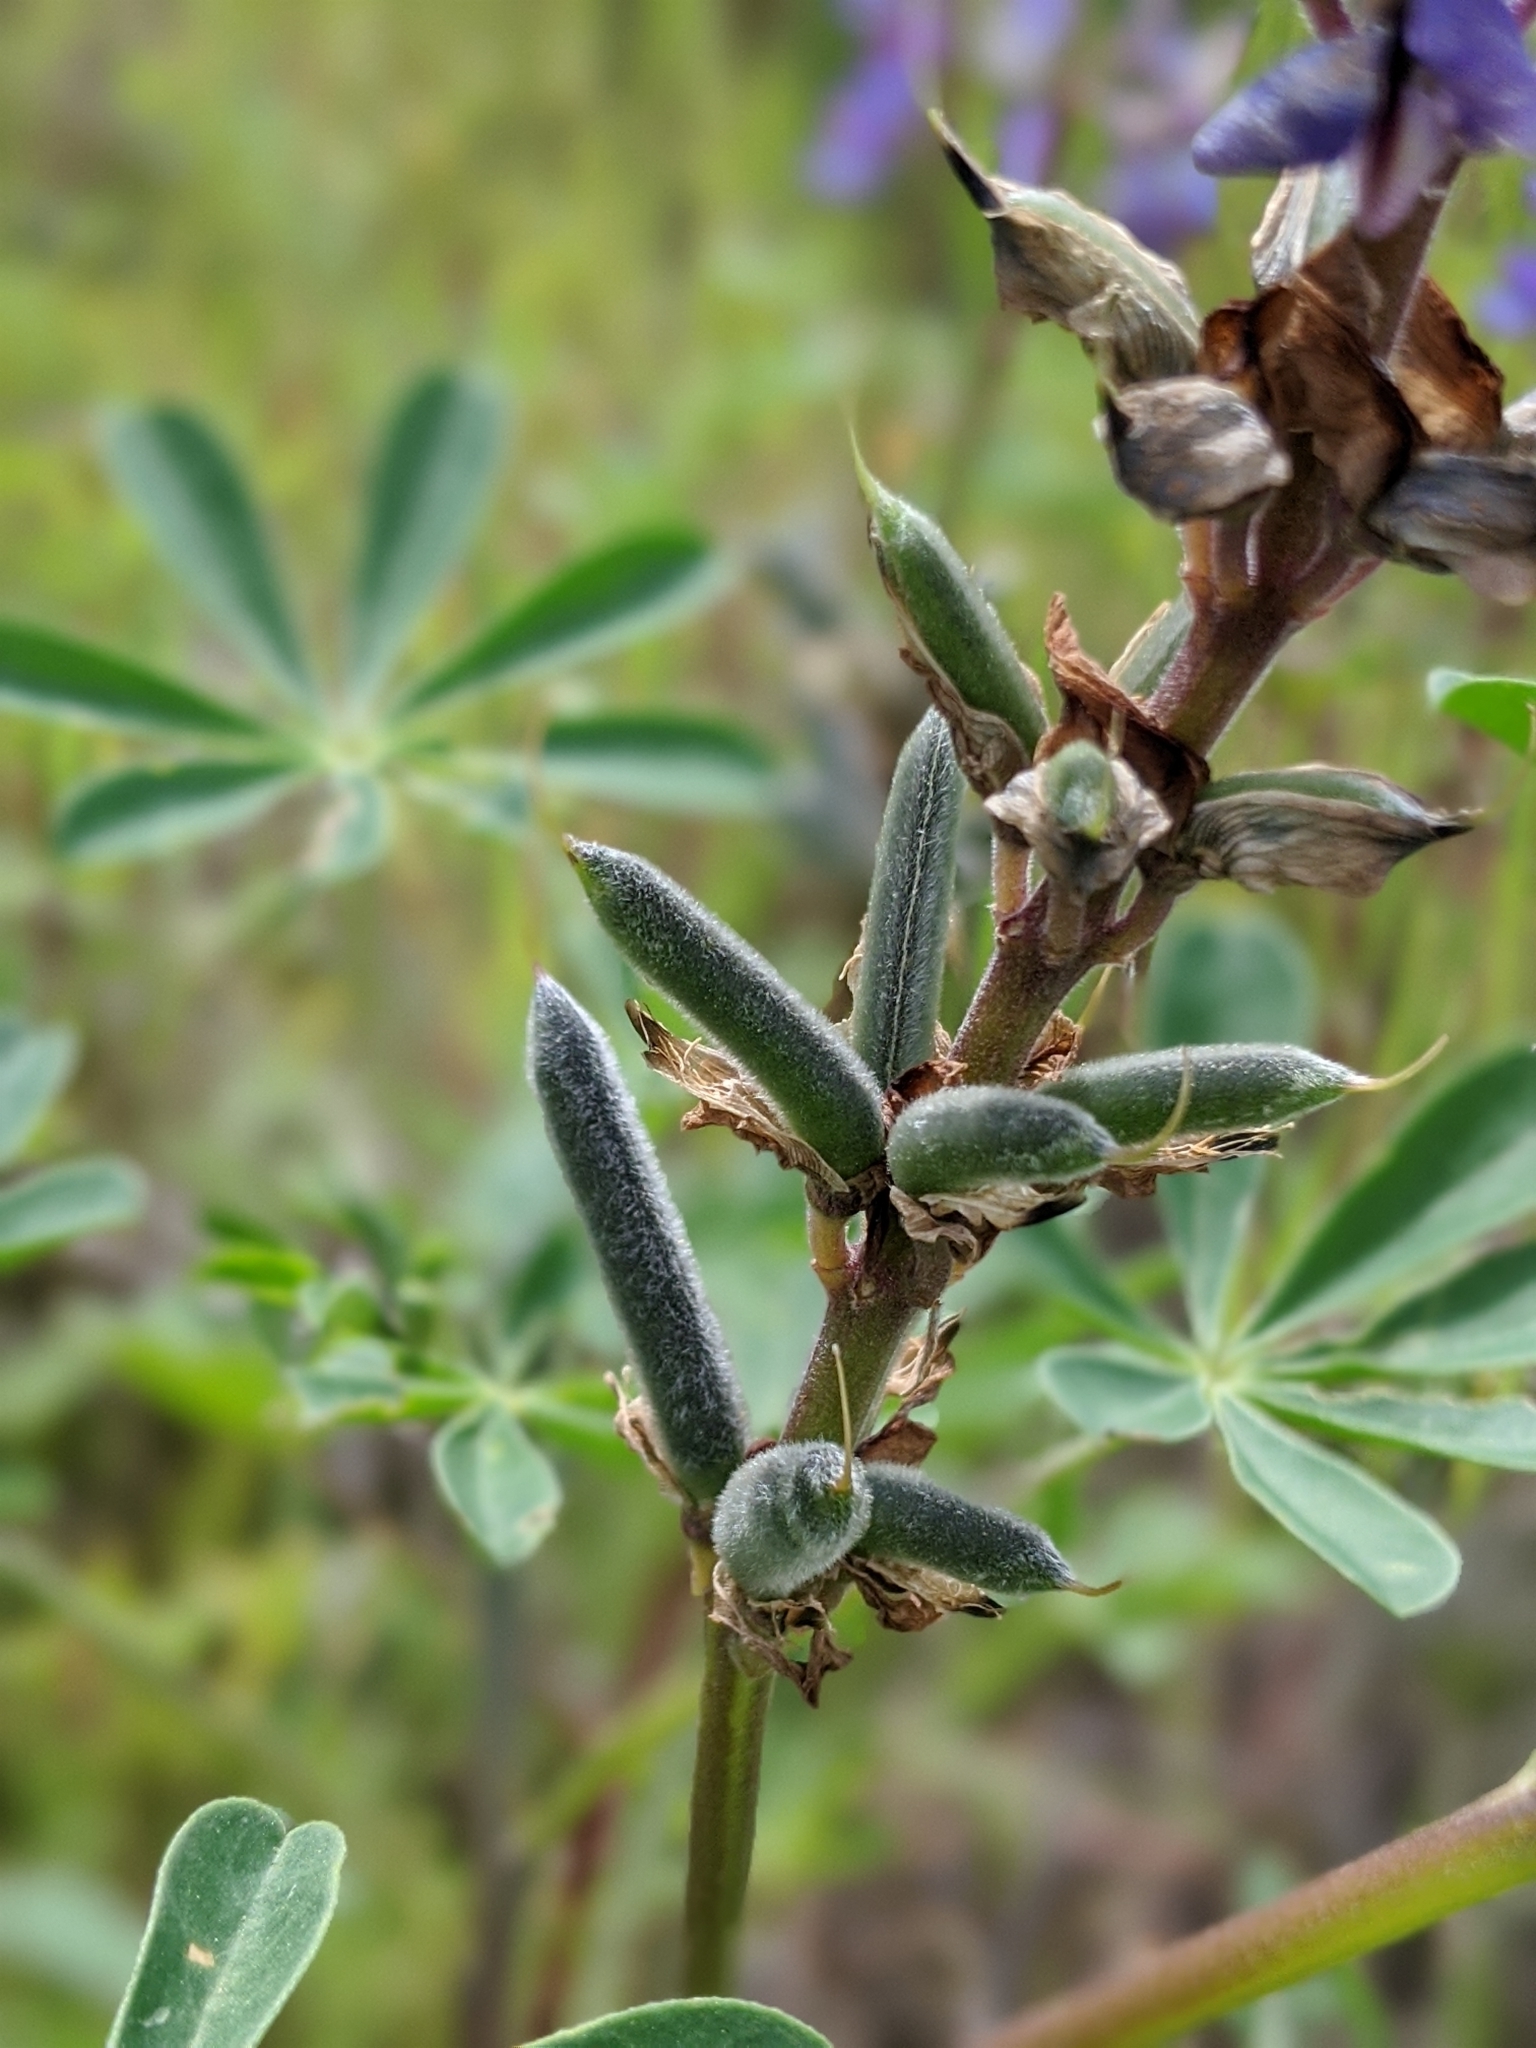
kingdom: Plantae
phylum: Tracheophyta
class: Magnoliopsida
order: Fabales
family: Fabaceae
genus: Lupinus
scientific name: Lupinus succulentus
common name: Arroyo lupine
